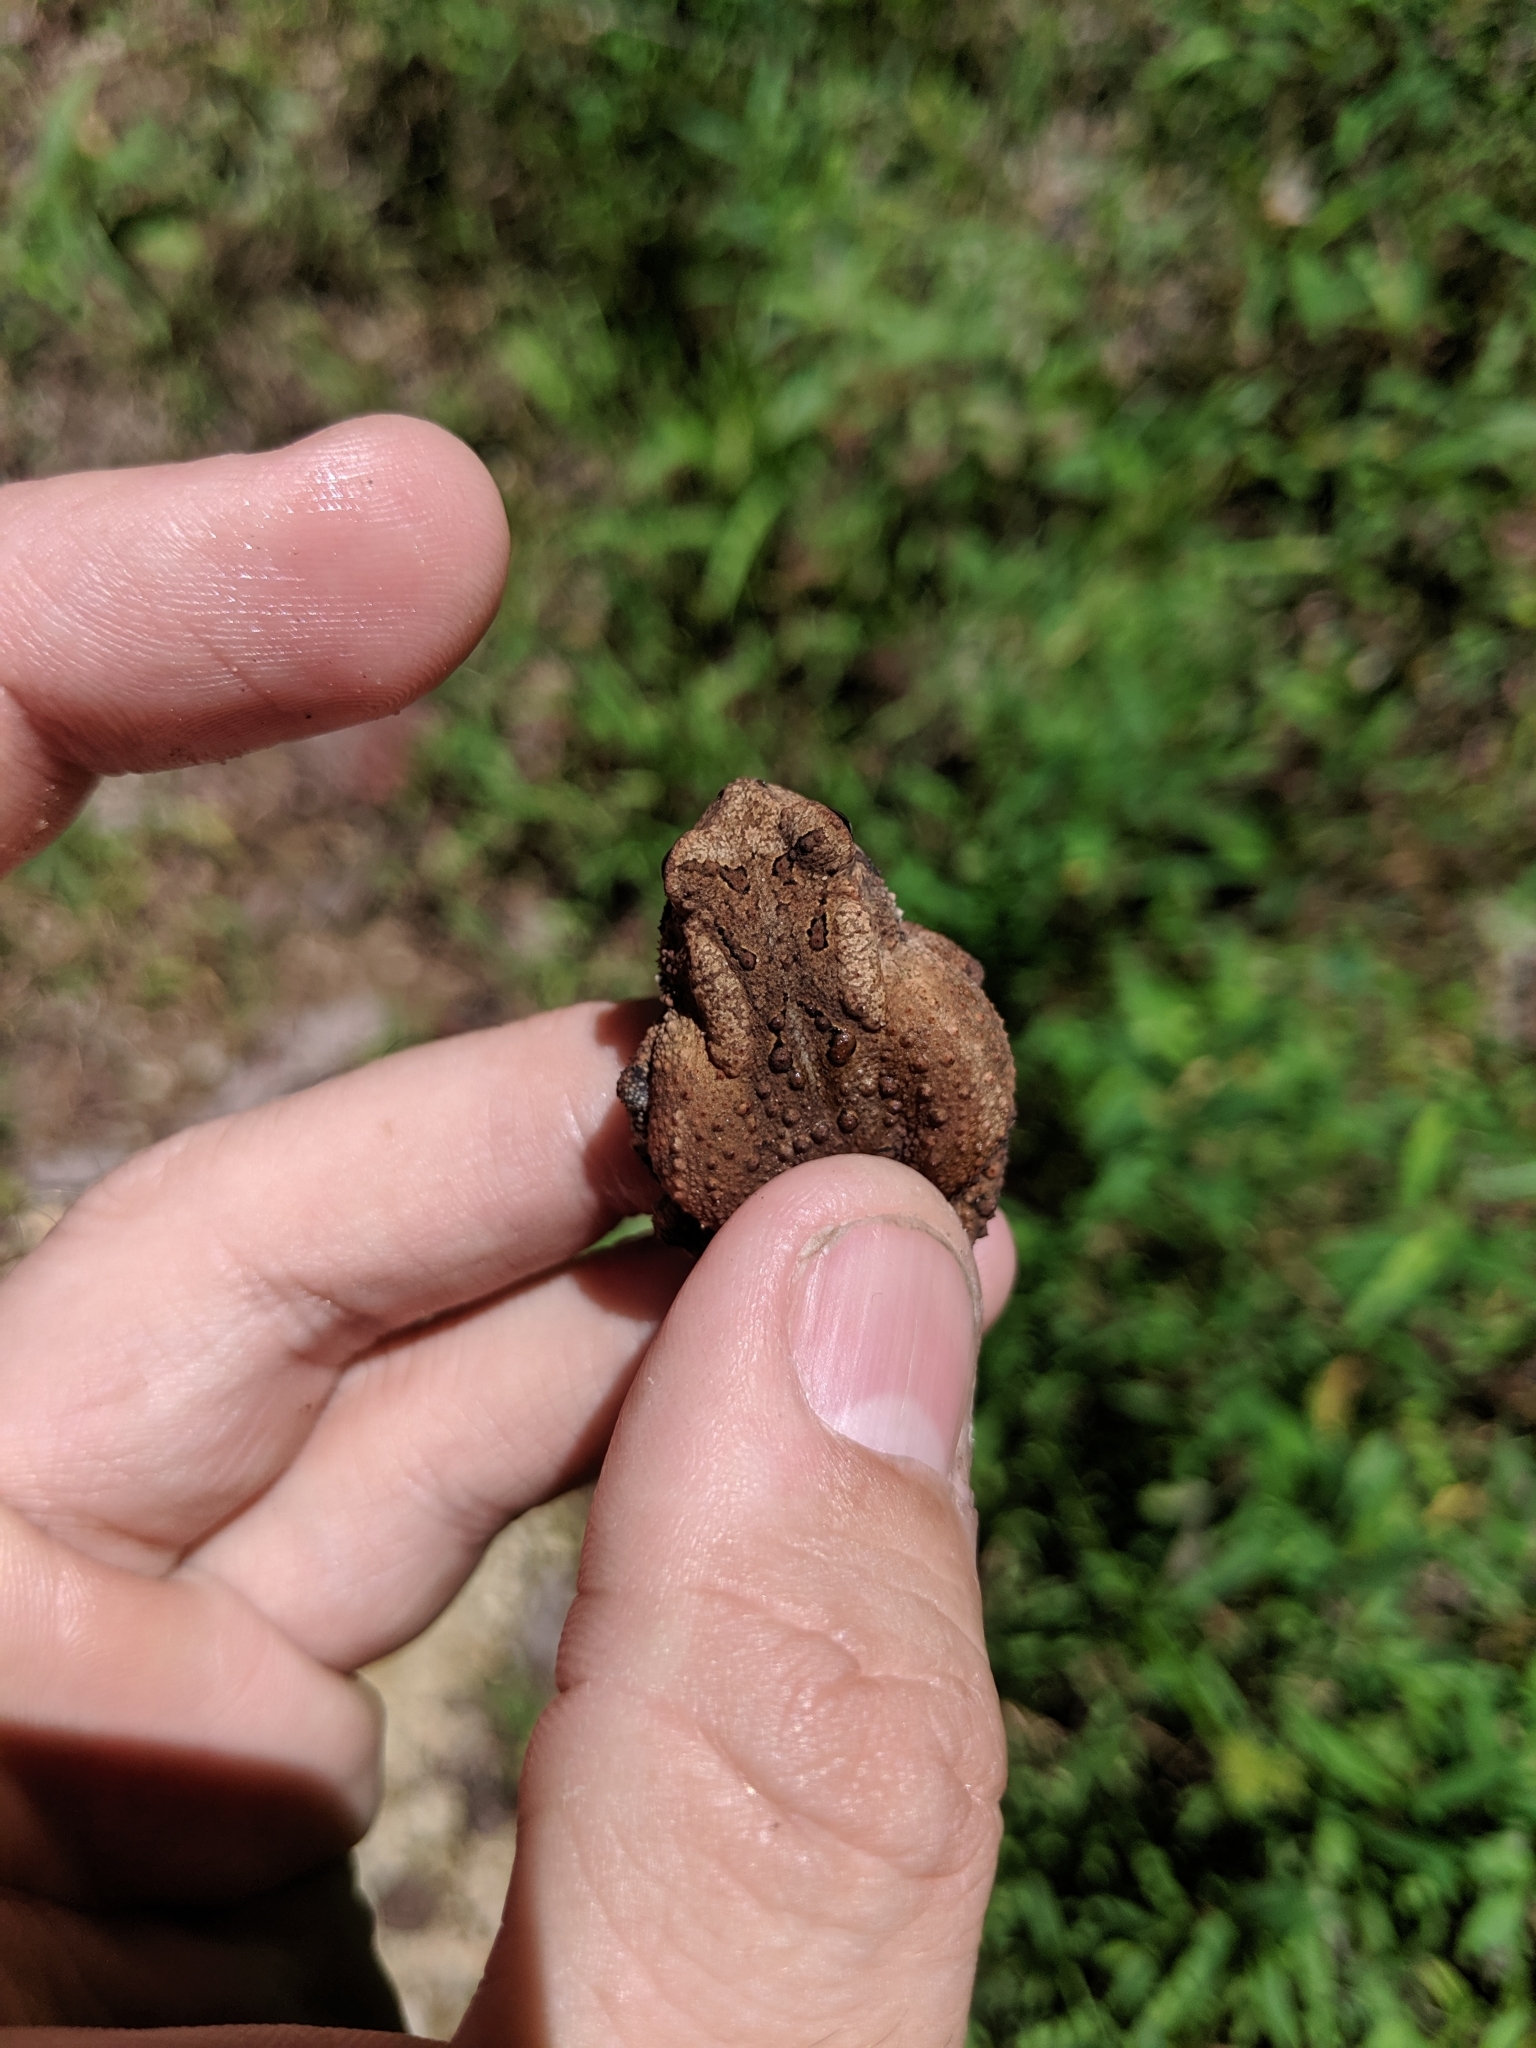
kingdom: Animalia
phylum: Chordata
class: Amphibia
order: Anura
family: Bufonidae
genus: Anaxyrus
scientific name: Anaxyrus americanus
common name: American toad
